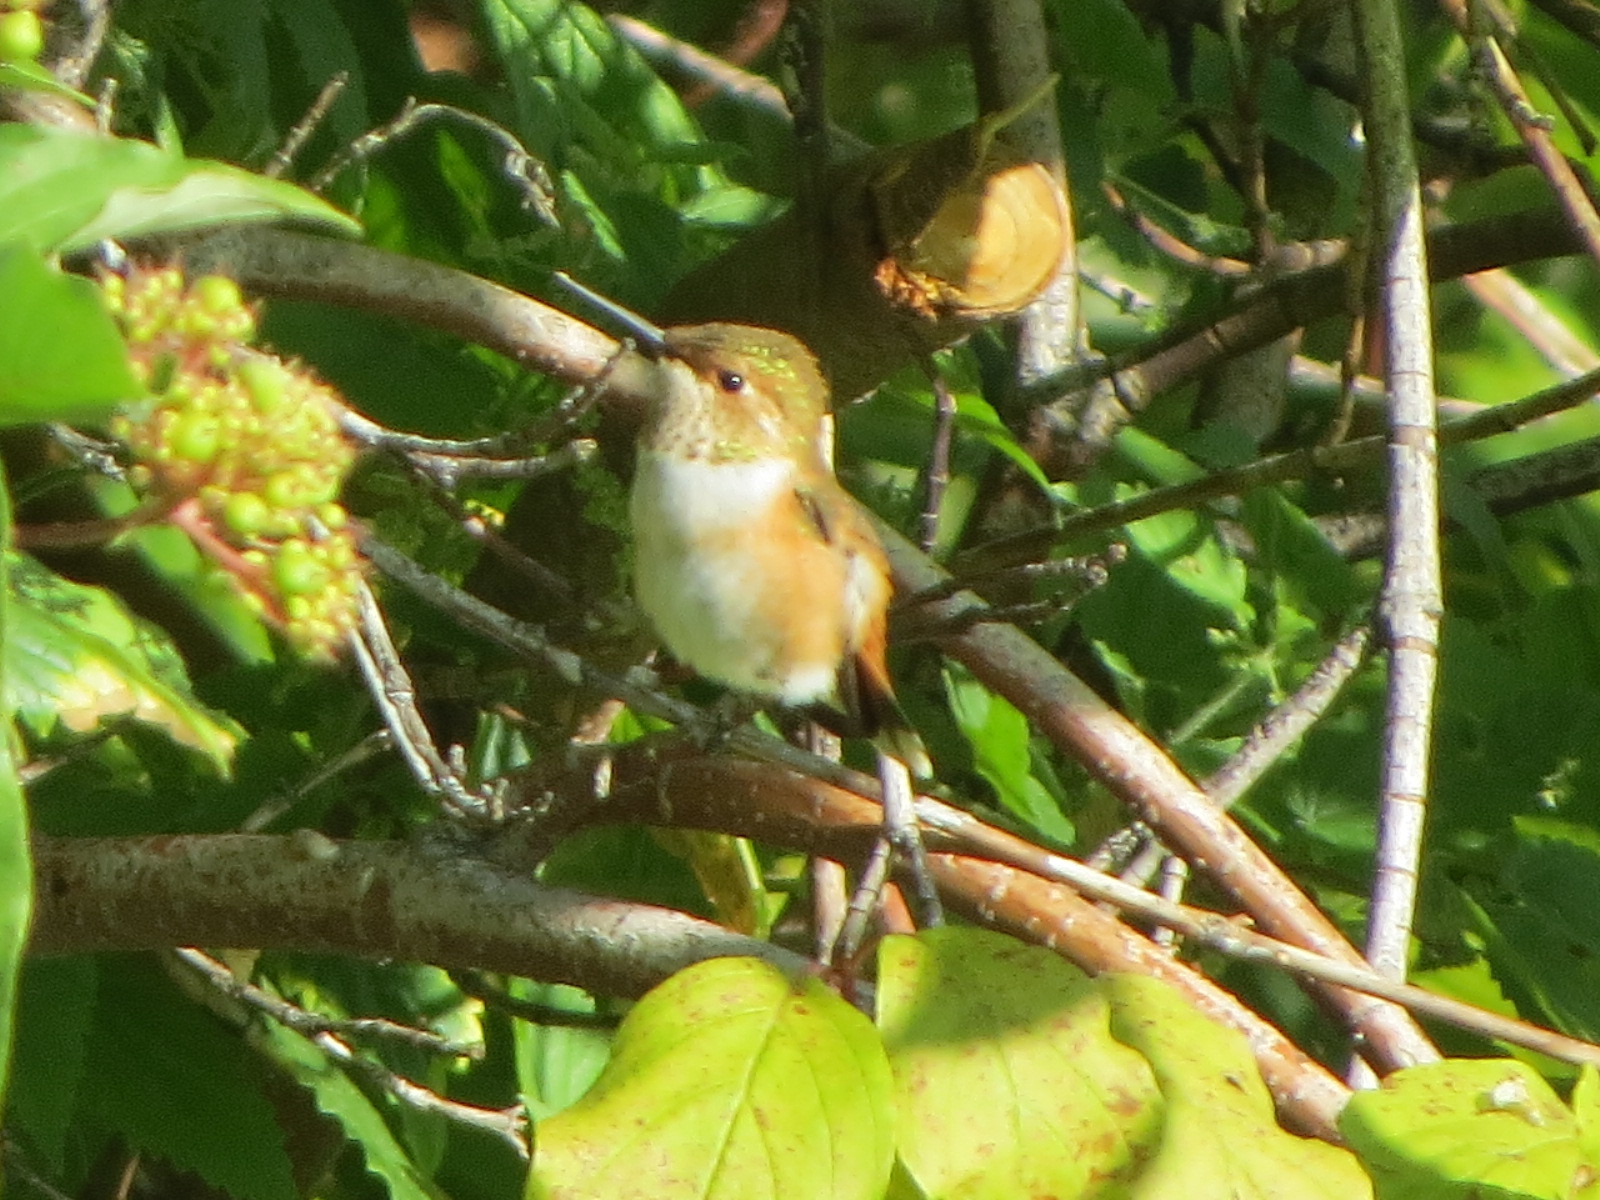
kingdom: Animalia
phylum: Chordata
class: Aves
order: Apodiformes
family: Trochilidae
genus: Selasphorus
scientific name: Selasphorus rufus
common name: Rufous hummingbird
